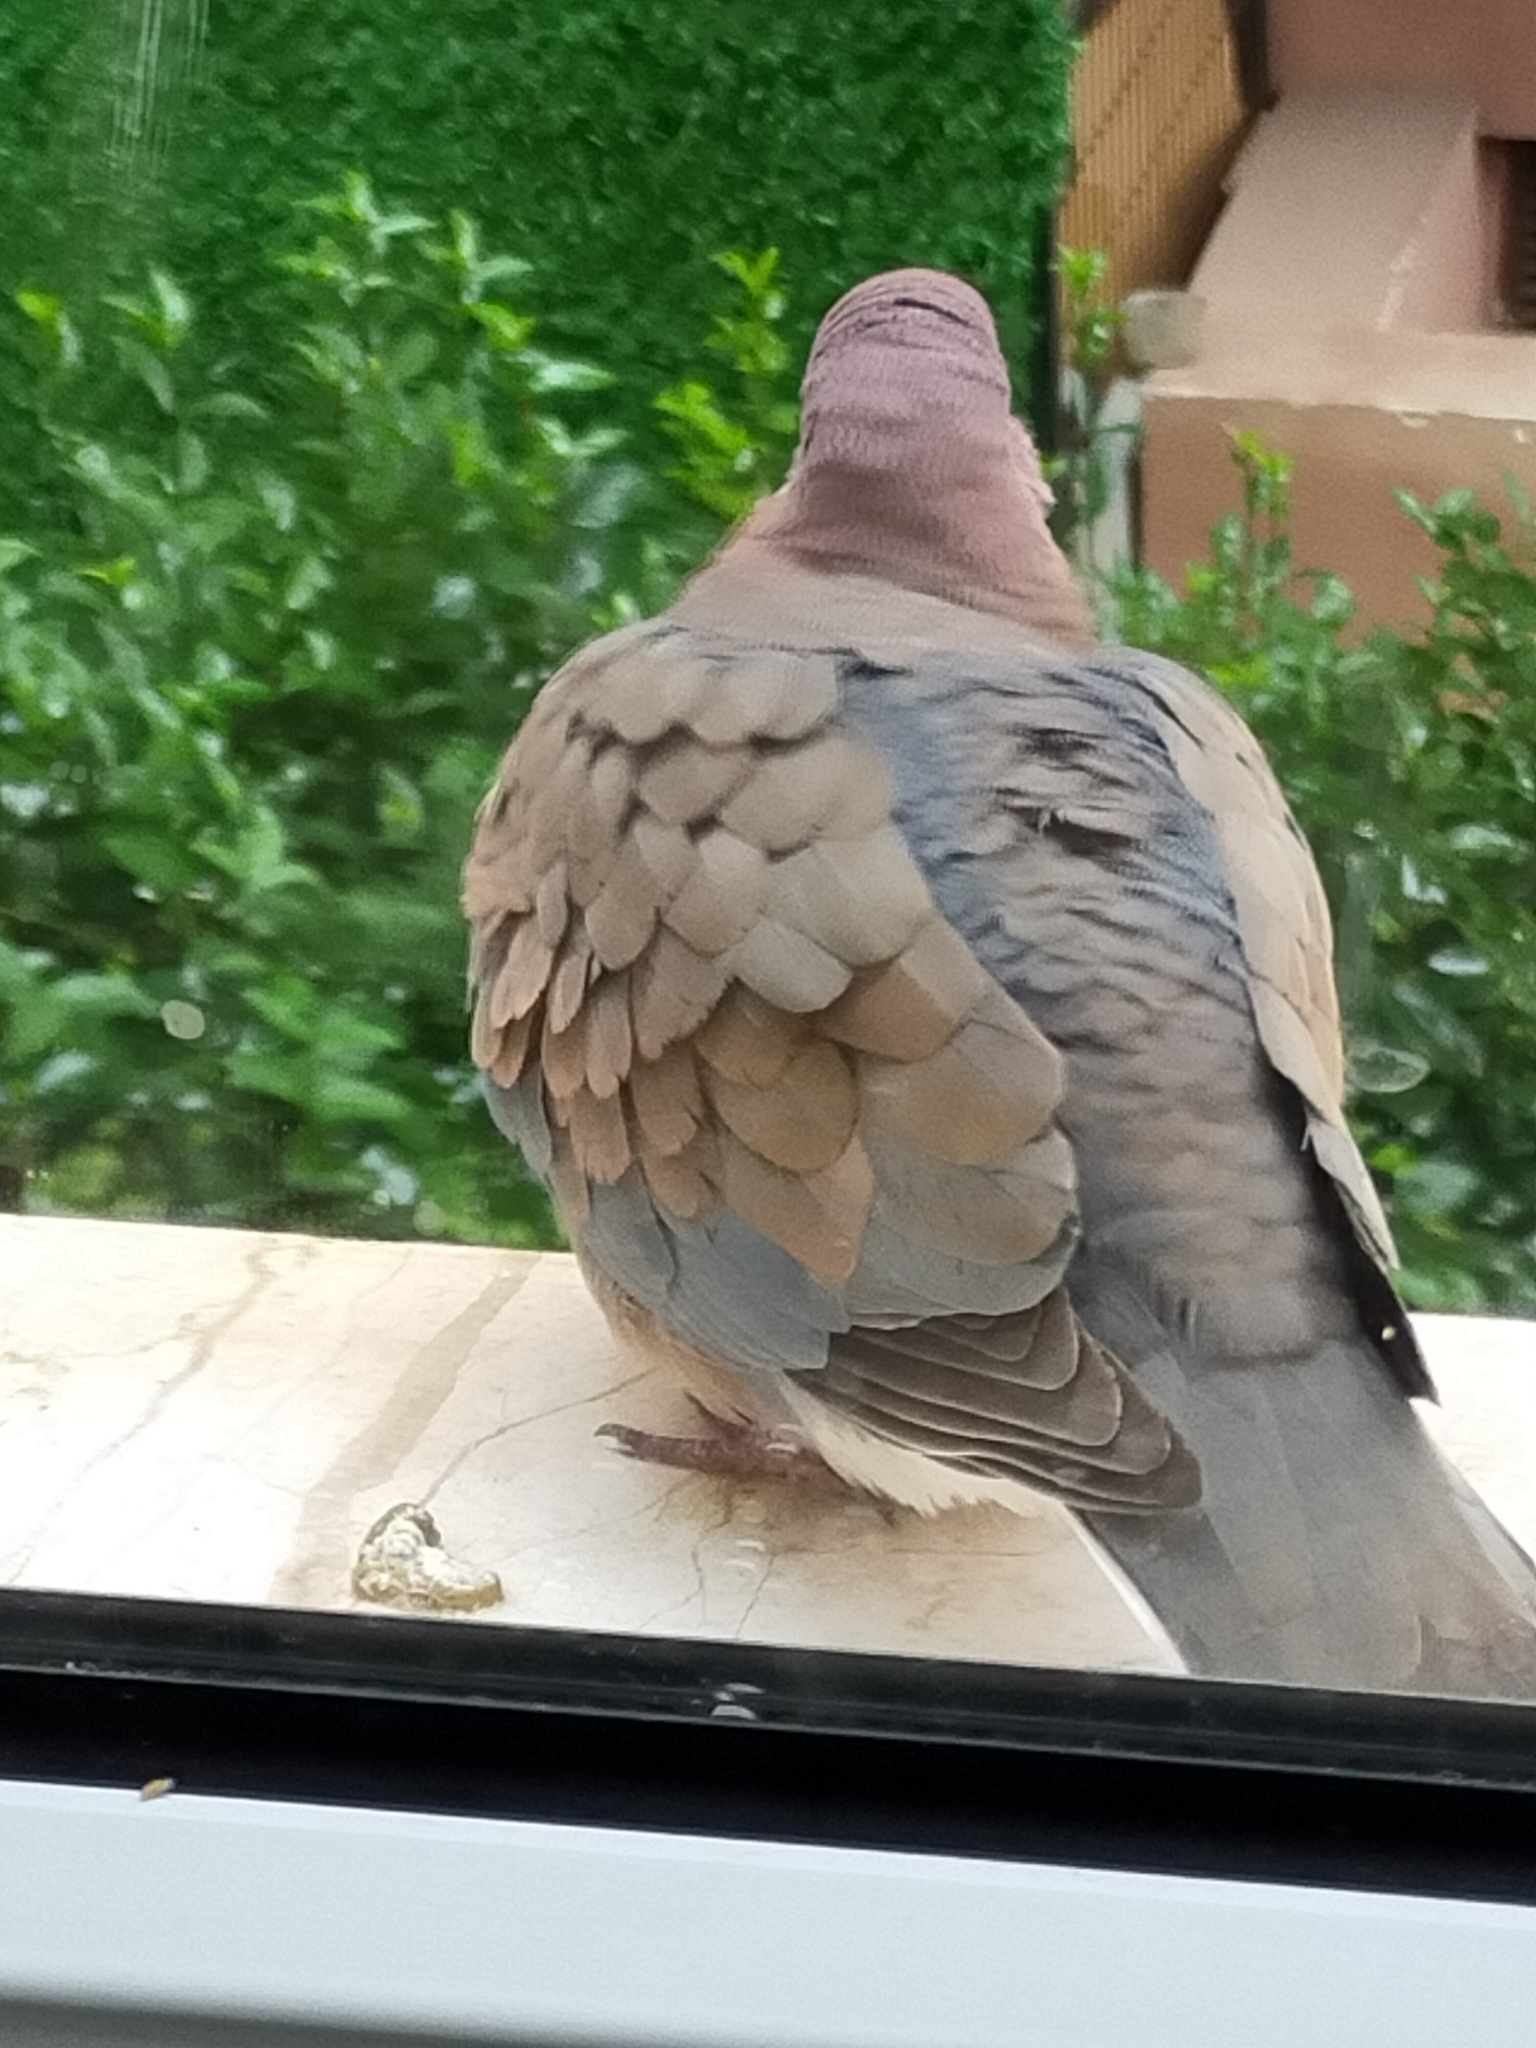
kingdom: Animalia
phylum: Chordata
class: Aves
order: Columbiformes
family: Columbidae
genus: Spilopelia
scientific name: Spilopelia senegalensis
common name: Laughing dove
